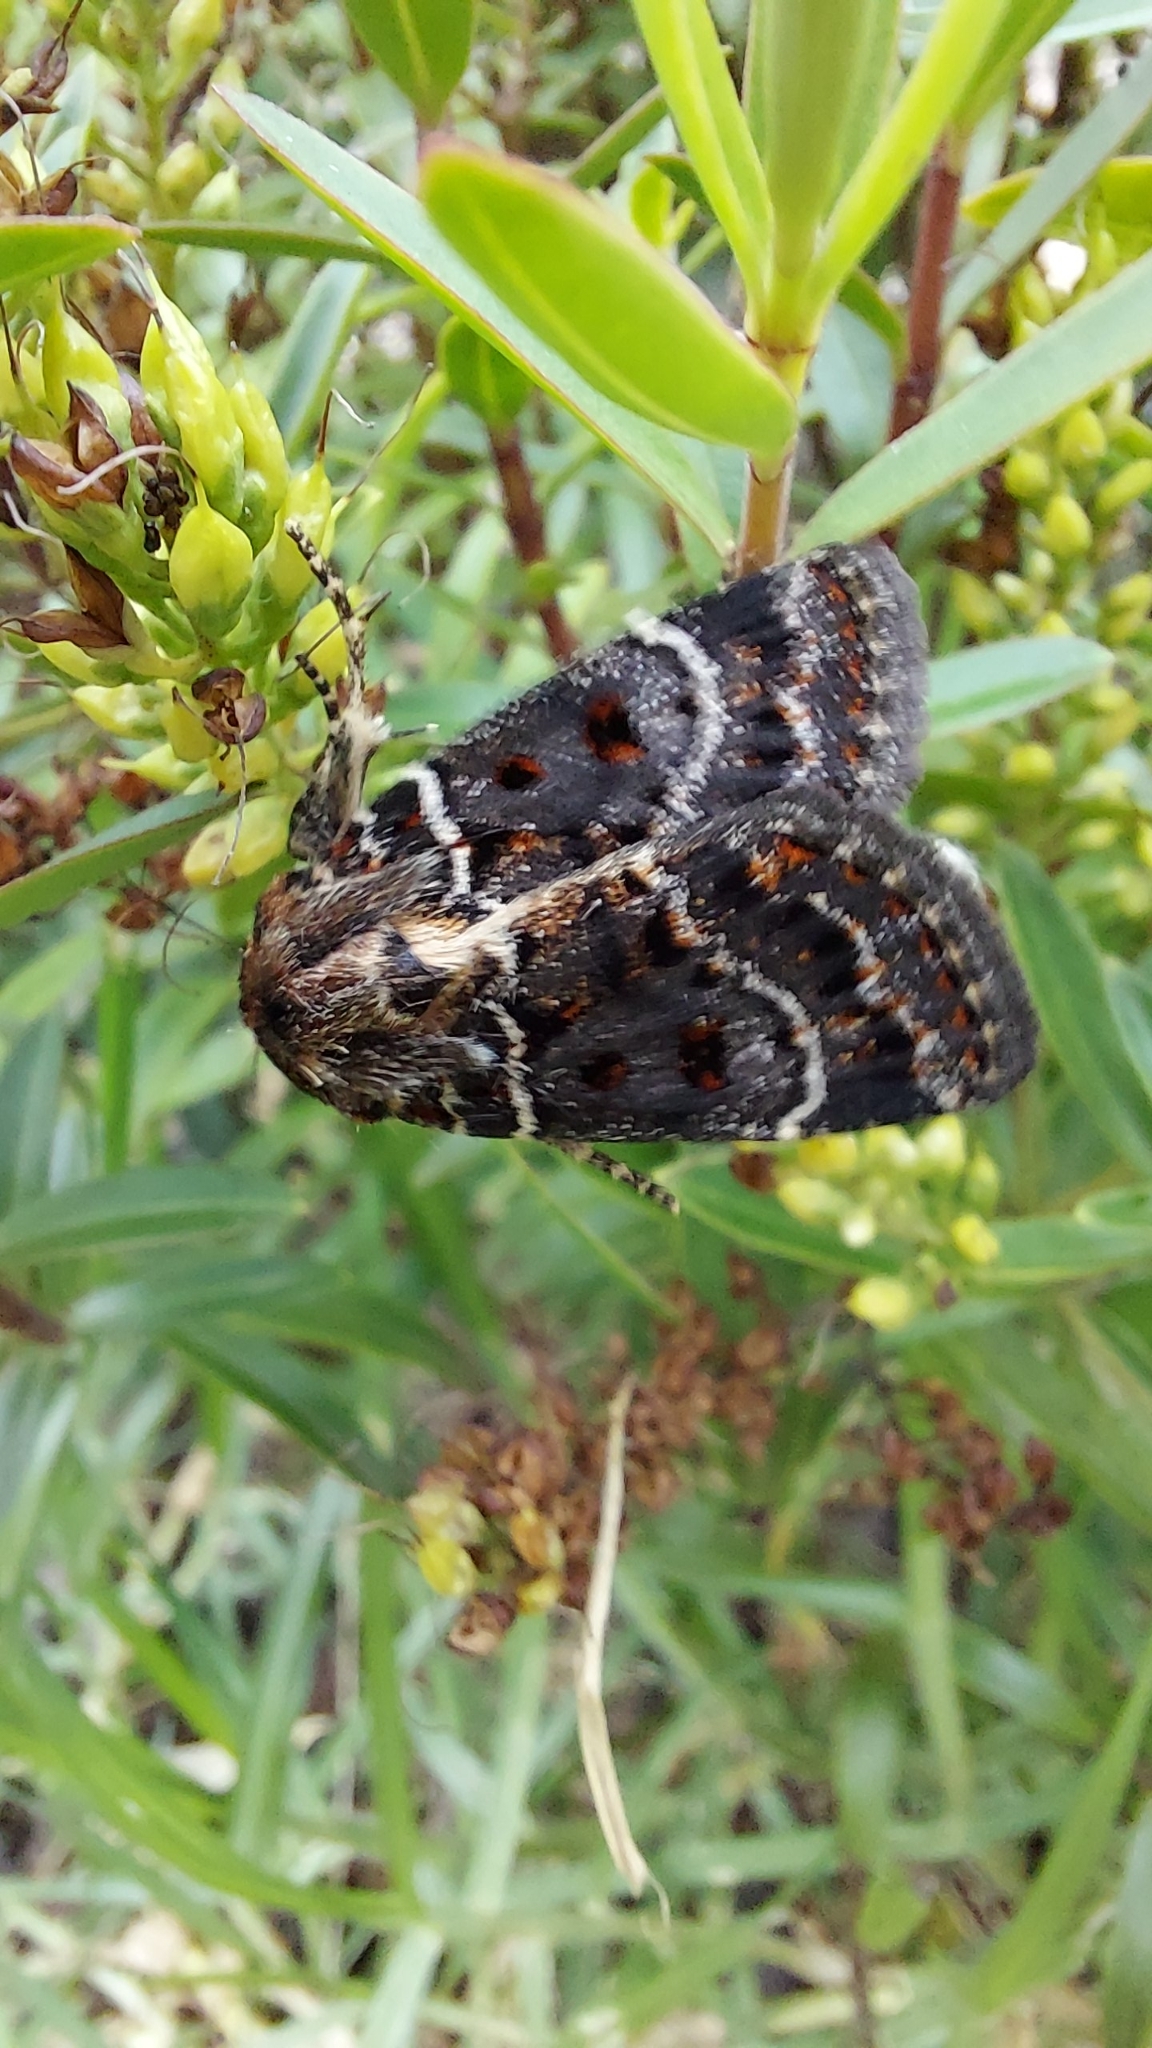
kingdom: Animalia
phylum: Arthropoda
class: Insecta
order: Lepidoptera
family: Noctuidae
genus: Proteuxoa
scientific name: Proteuxoa sanguinipuncta
